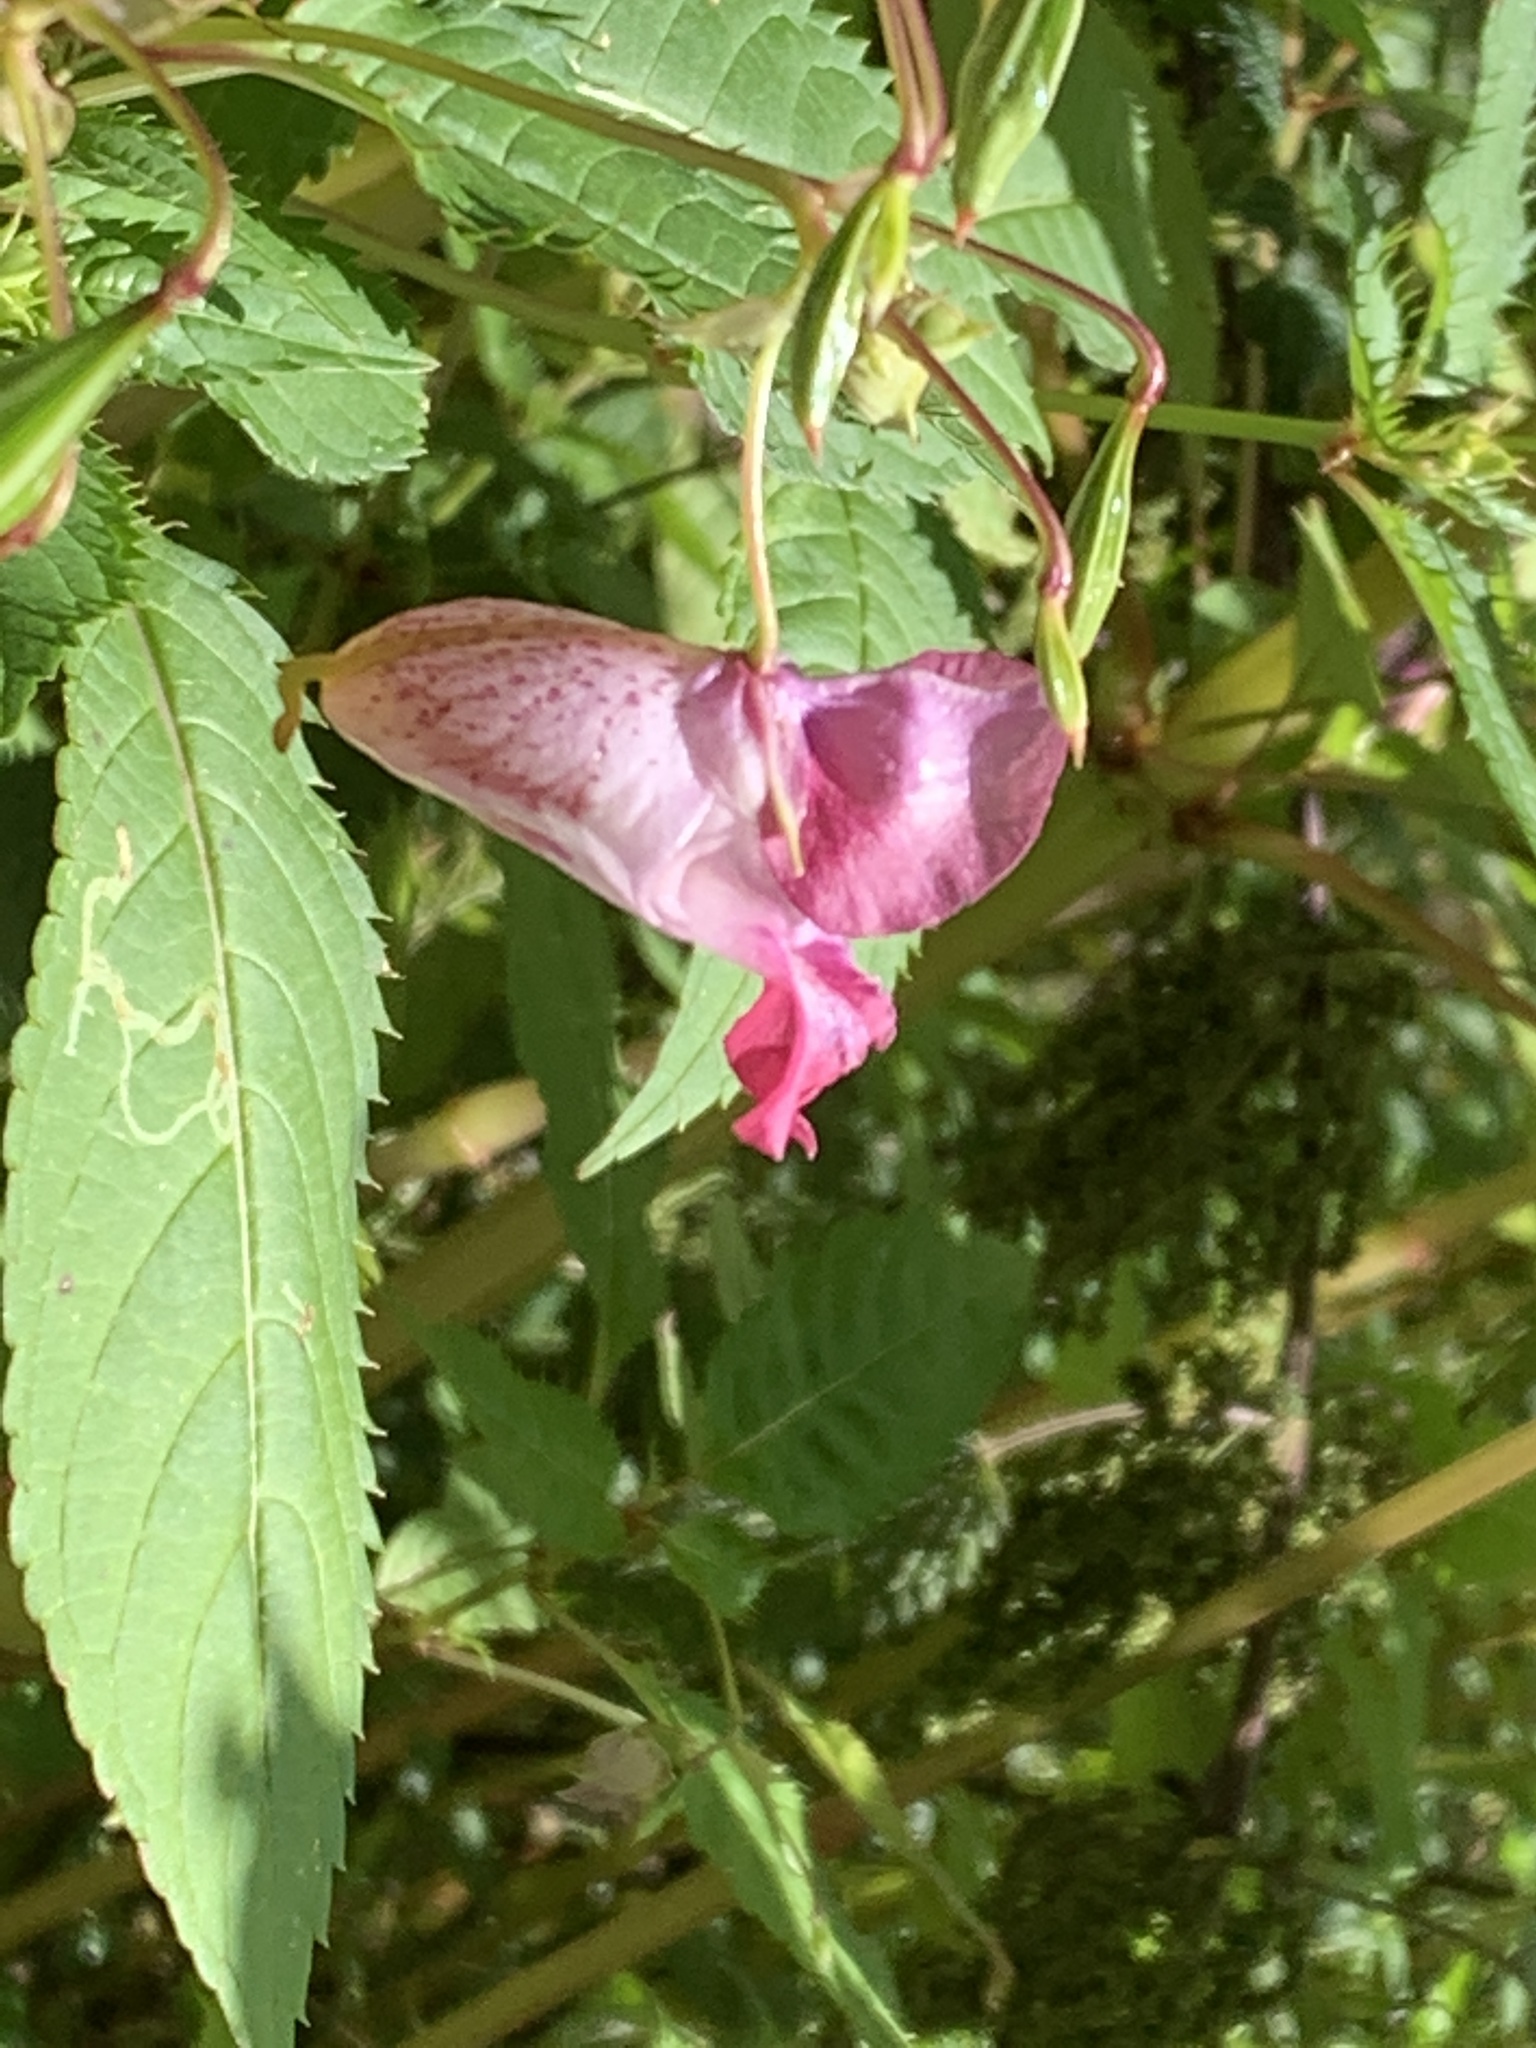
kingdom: Plantae
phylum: Tracheophyta
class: Magnoliopsida
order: Ericales
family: Balsaminaceae
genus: Impatiens
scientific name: Impatiens glandulifera
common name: Himalayan balsam
